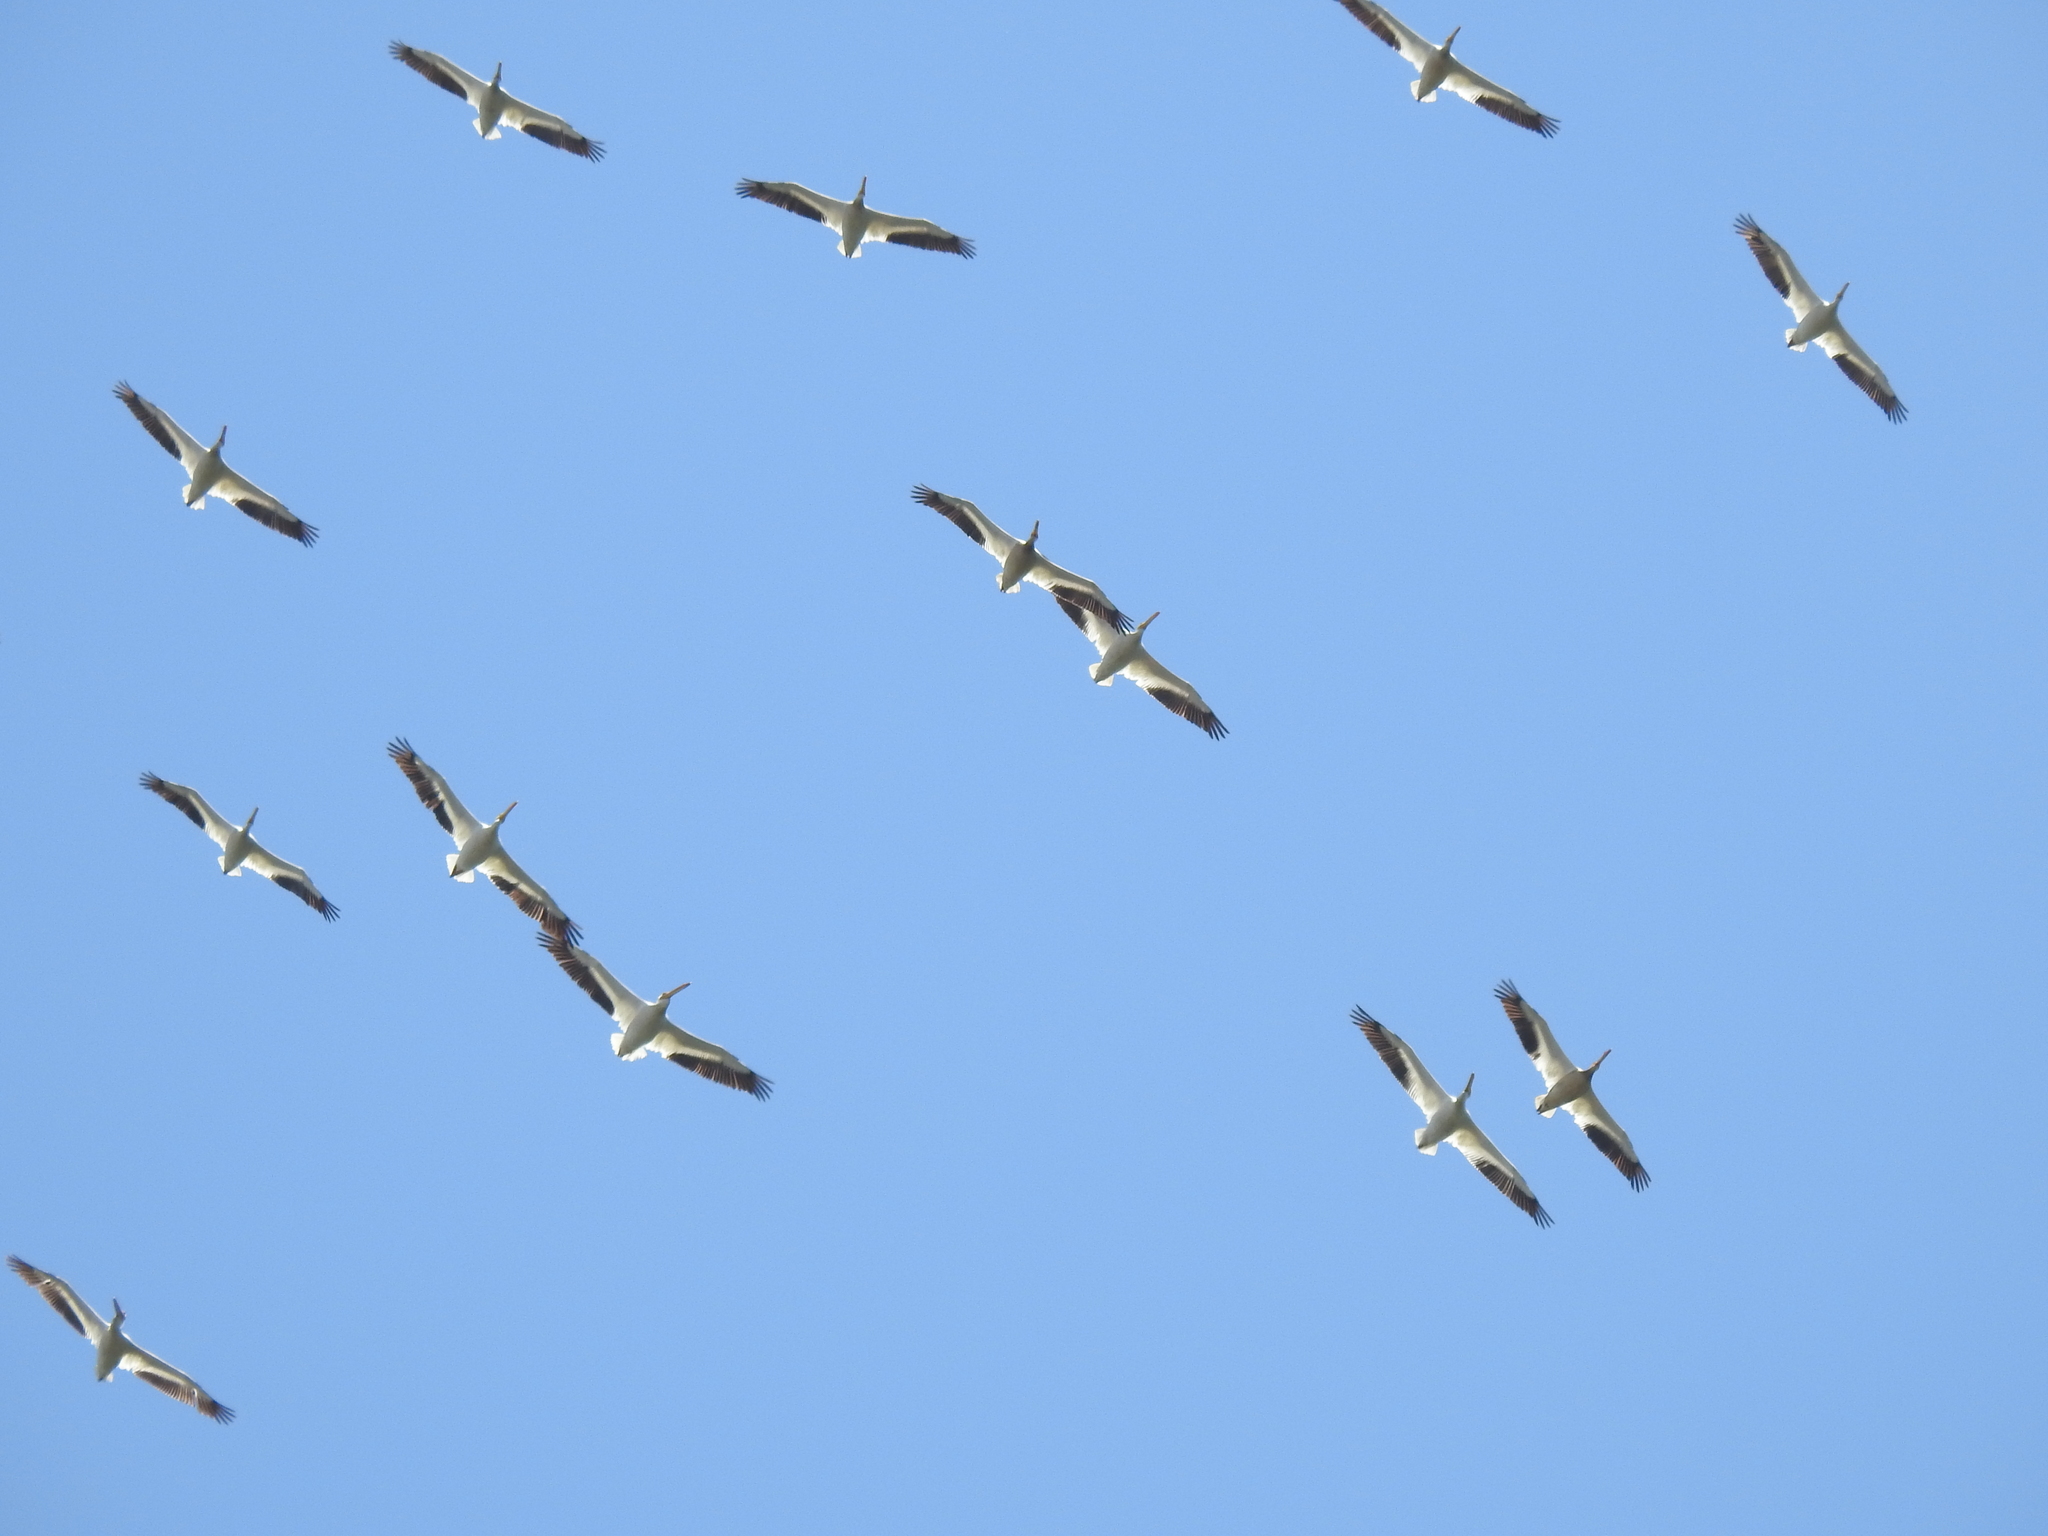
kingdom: Animalia
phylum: Chordata
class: Aves
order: Pelecaniformes
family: Pelecanidae
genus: Pelecanus
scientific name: Pelecanus erythrorhynchos
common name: American white pelican
